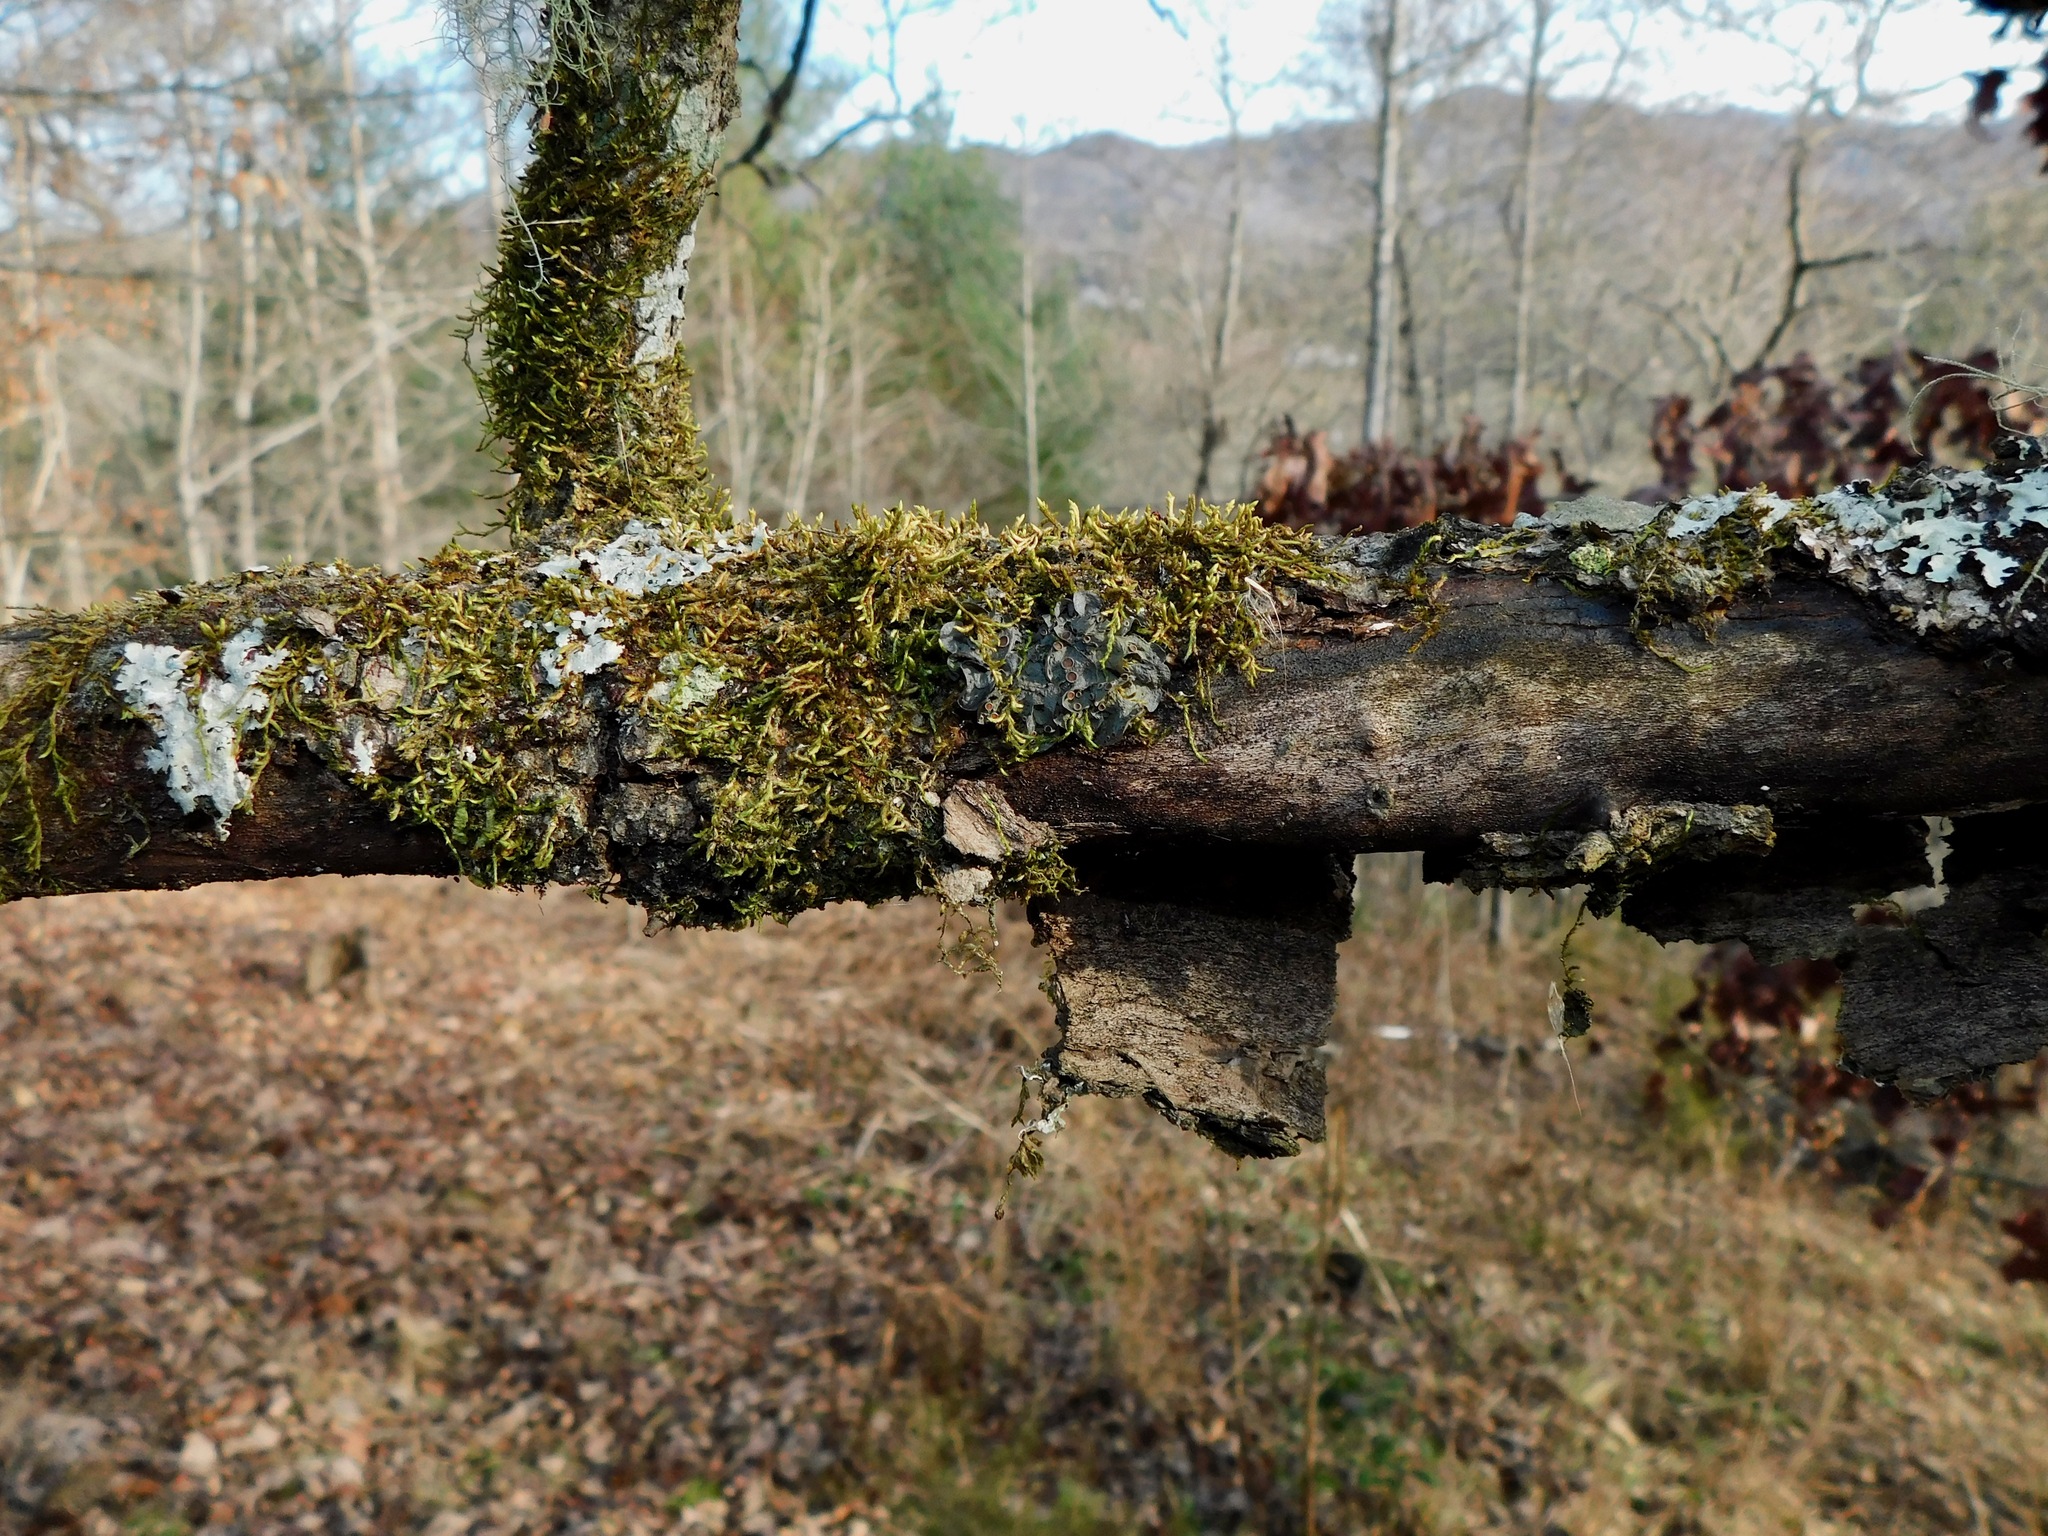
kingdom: Fungi
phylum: Ascomycota
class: Lecanoromycetes
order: Peltigerales
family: Collemataceae
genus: Leptogium
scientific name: Leptogium corticola
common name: Blistered jellyskin lichen
